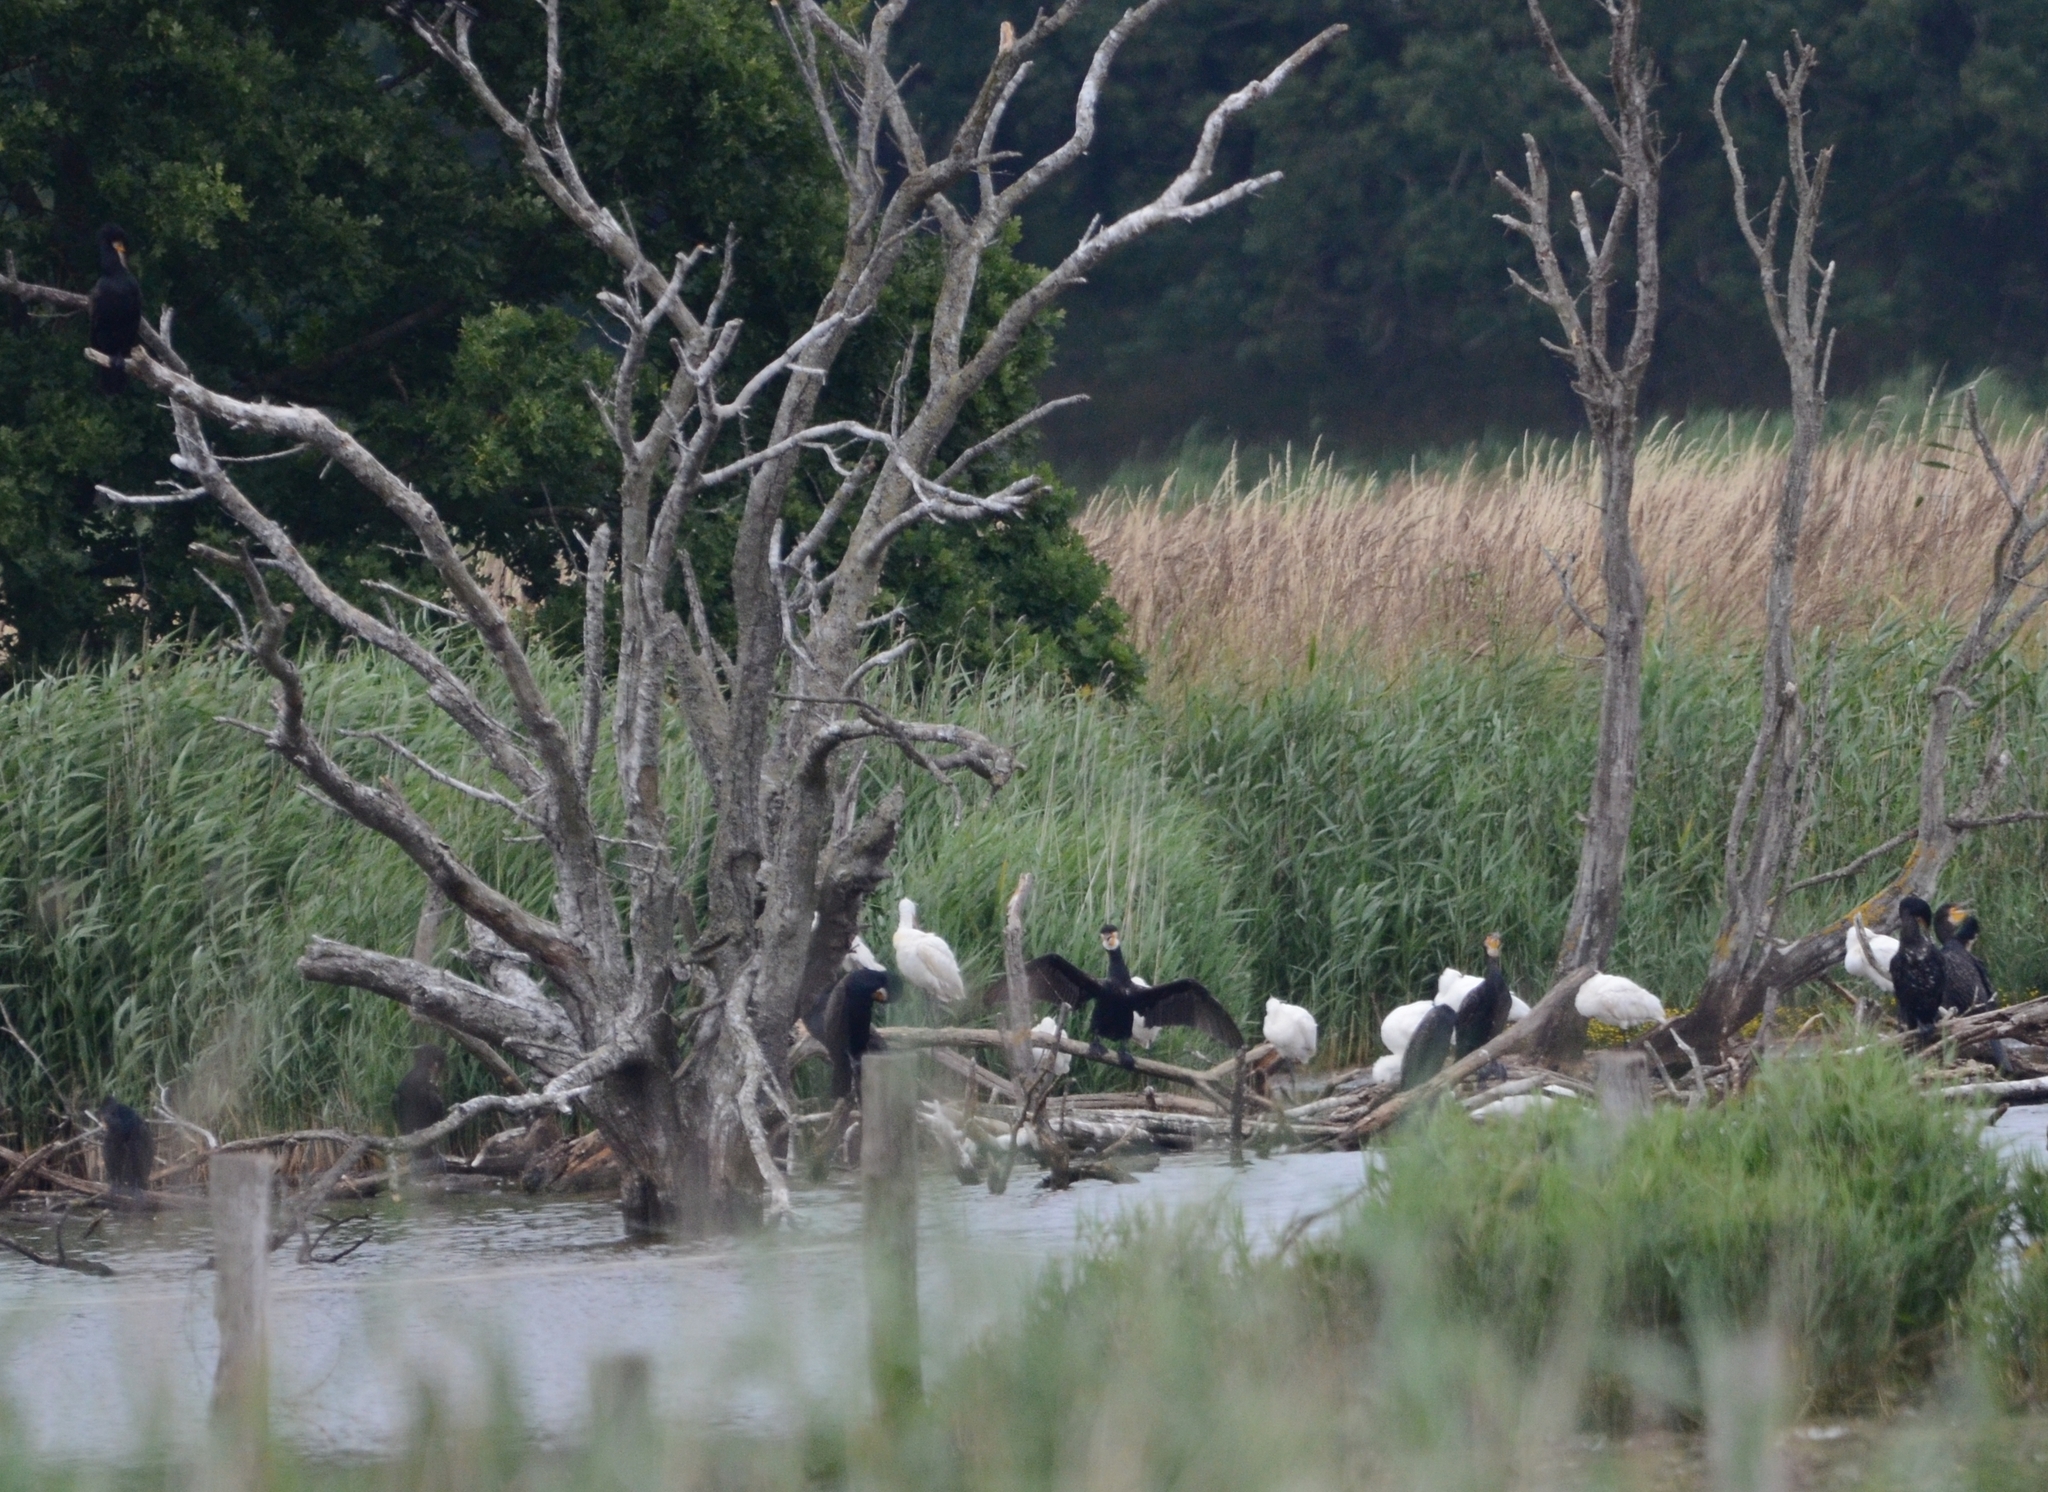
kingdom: Animalia
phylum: Chordata
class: Aves
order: Pelecaniformes
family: Threskiornithidae
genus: Platalea
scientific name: Platalea leucorodia
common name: Eurasian spoonbill
